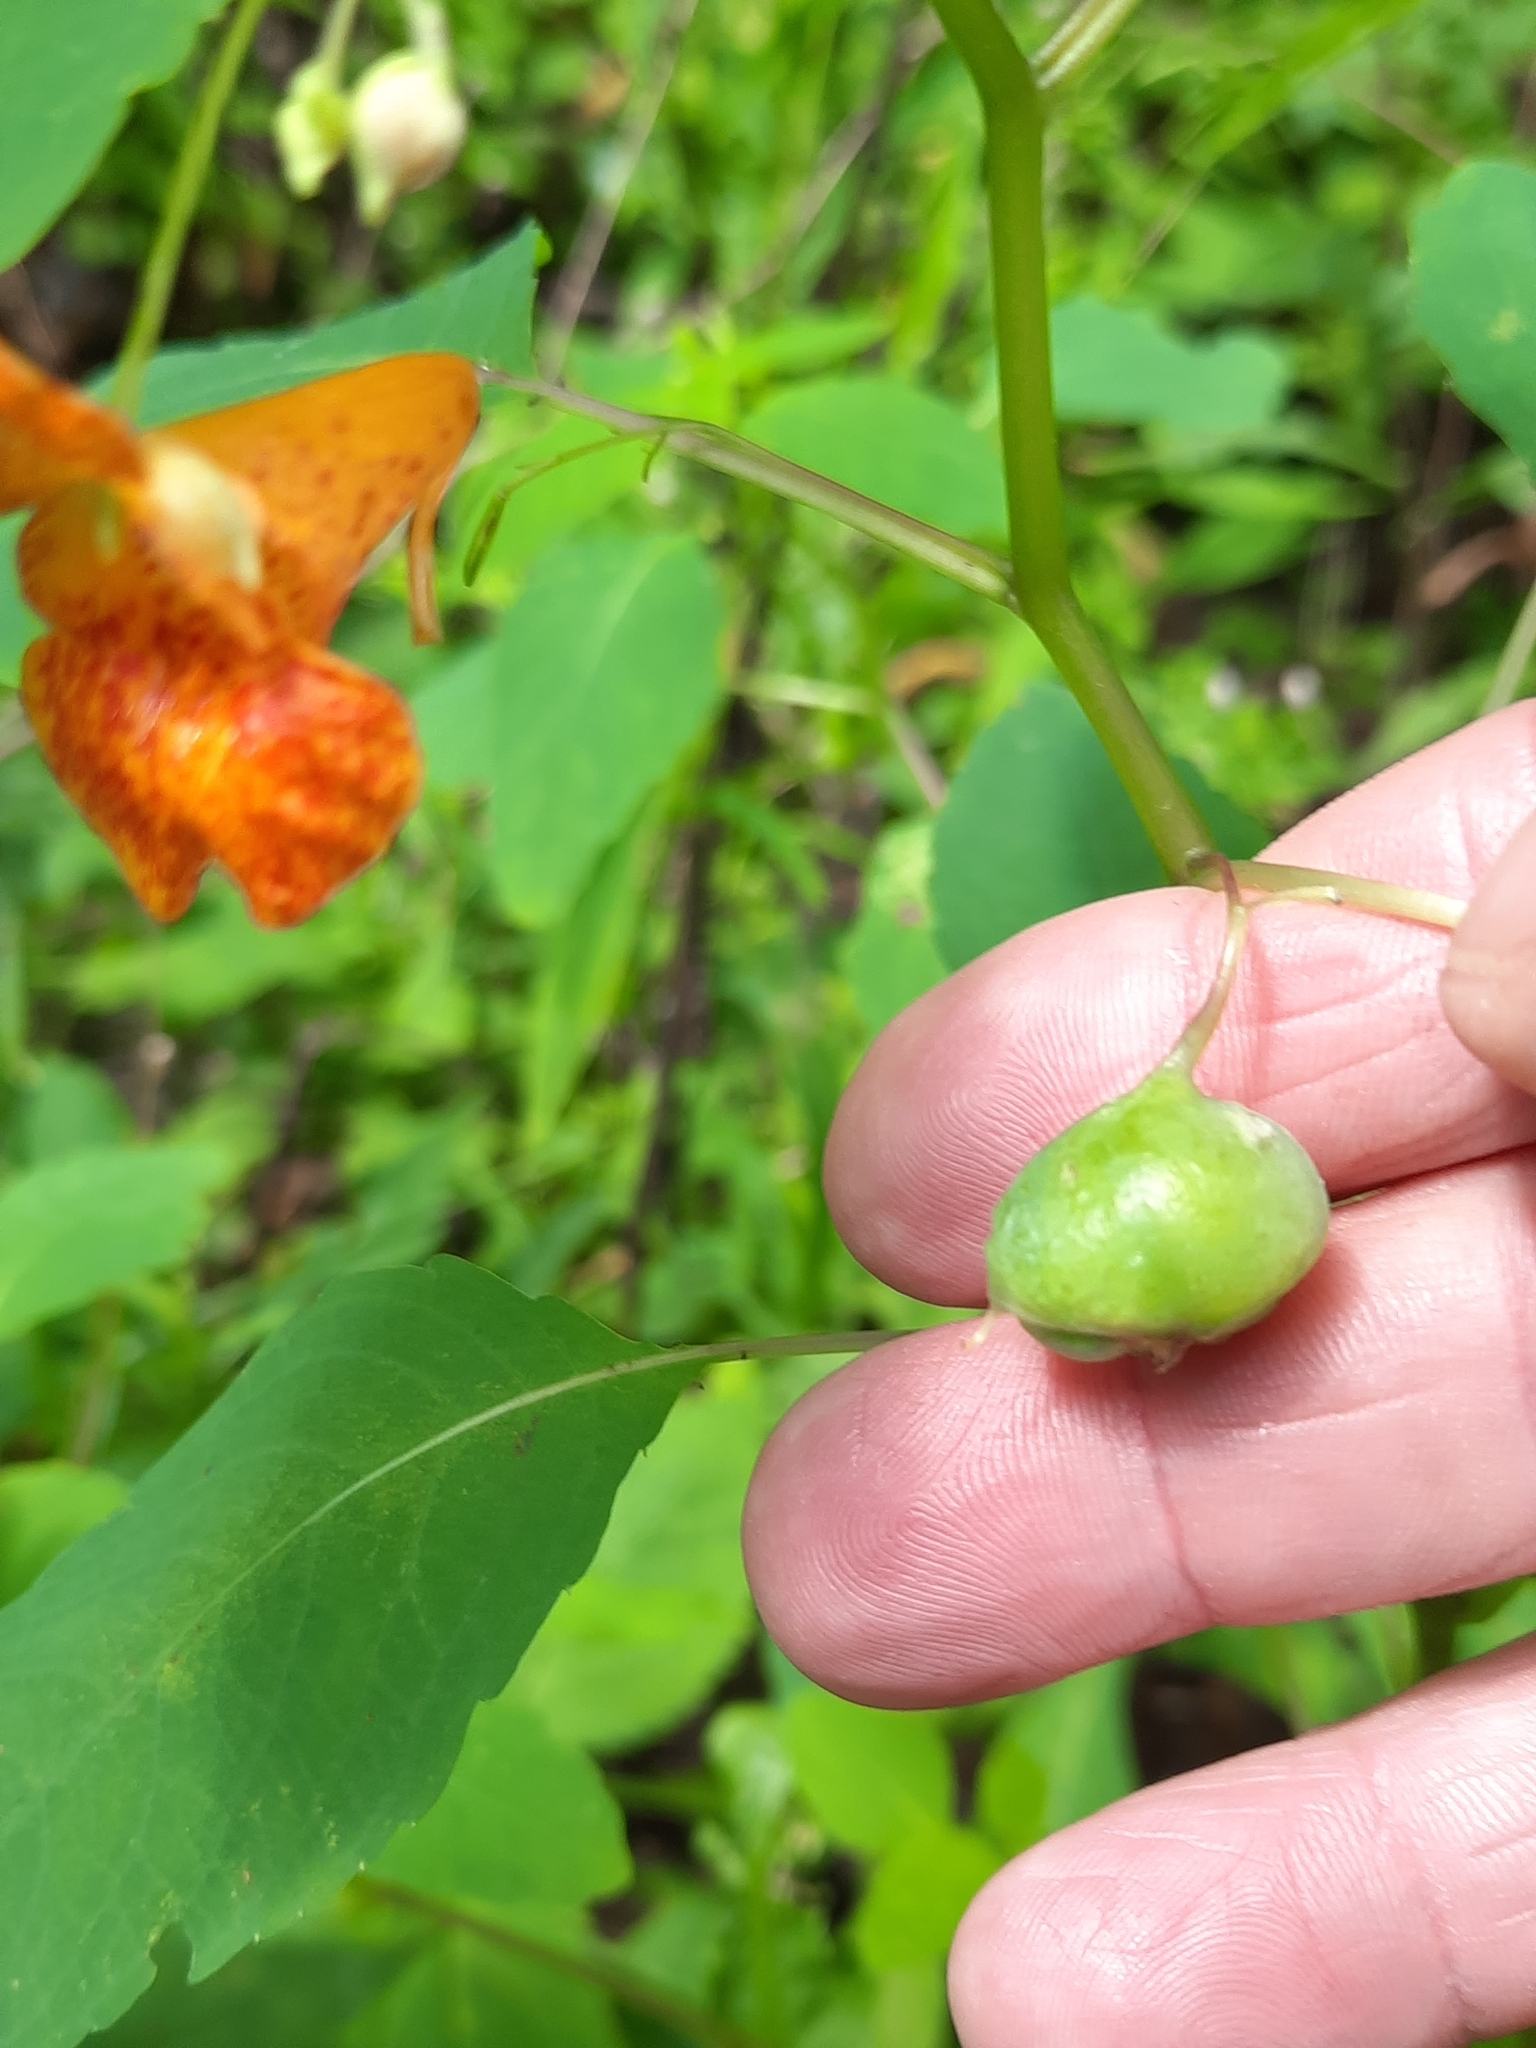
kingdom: Animalia
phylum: Arthropoda
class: Insecta
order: Diptera
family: Cecidomyiidae
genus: Schizomyia
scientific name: Schizomyia impatientis
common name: Jewelweed gall midge
